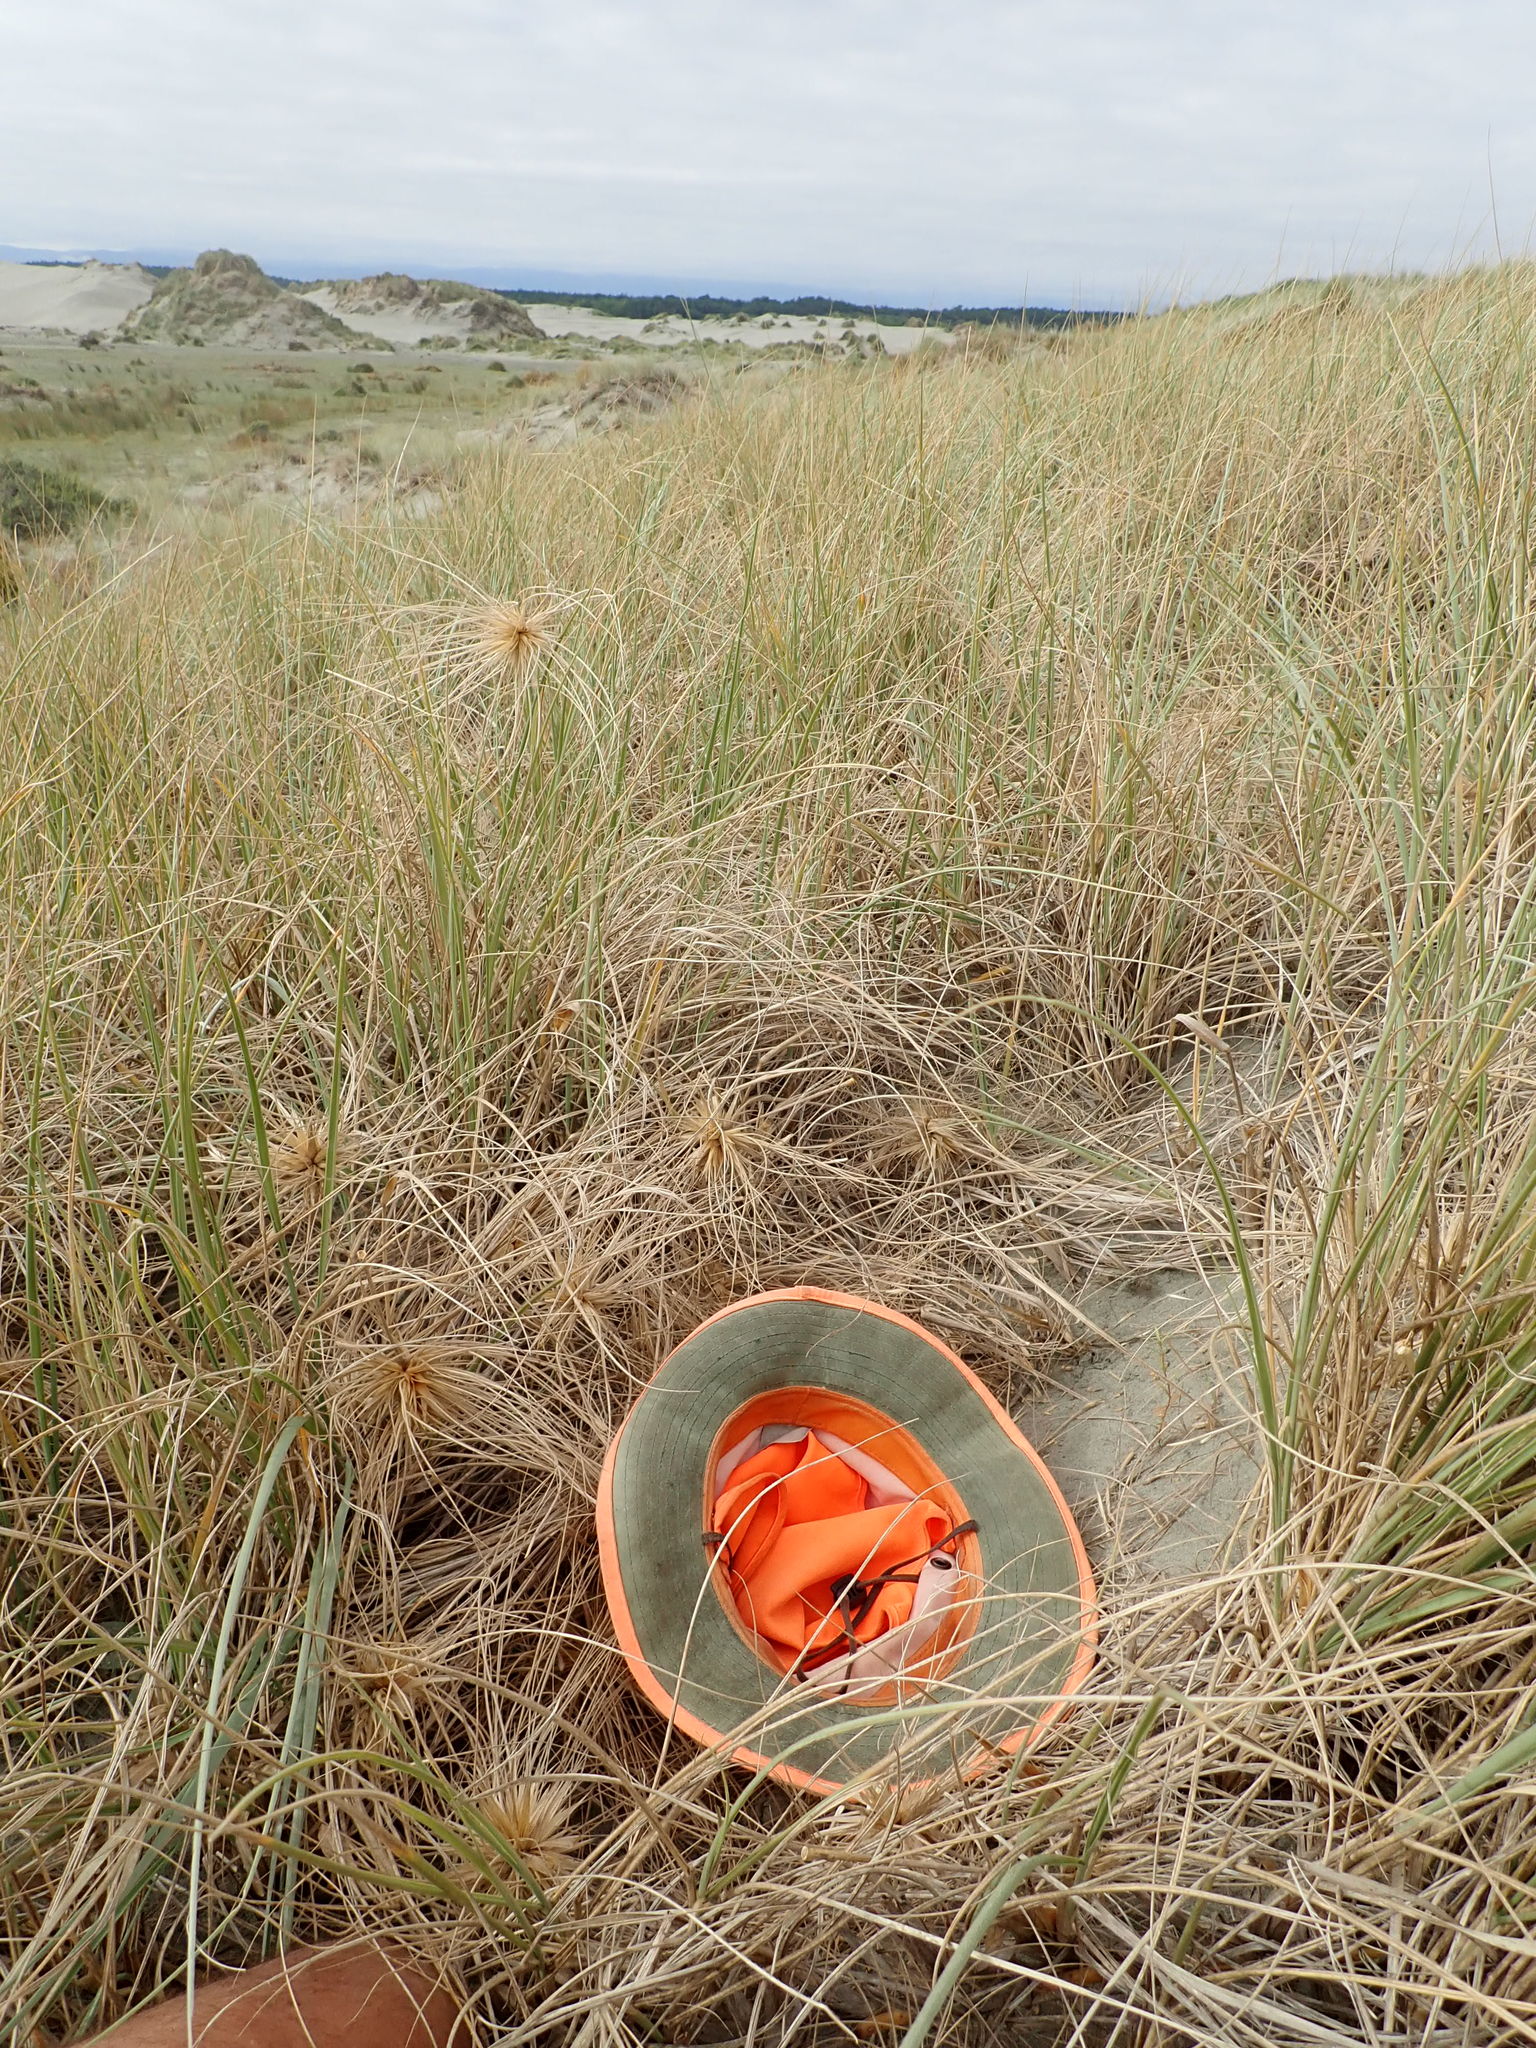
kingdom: Plantae
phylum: Tracheophyta
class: Magnoliopsida
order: Gentianales
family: Rubiaceae
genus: Coprosma
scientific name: Coprosma acerosa
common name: Sand coprosma
